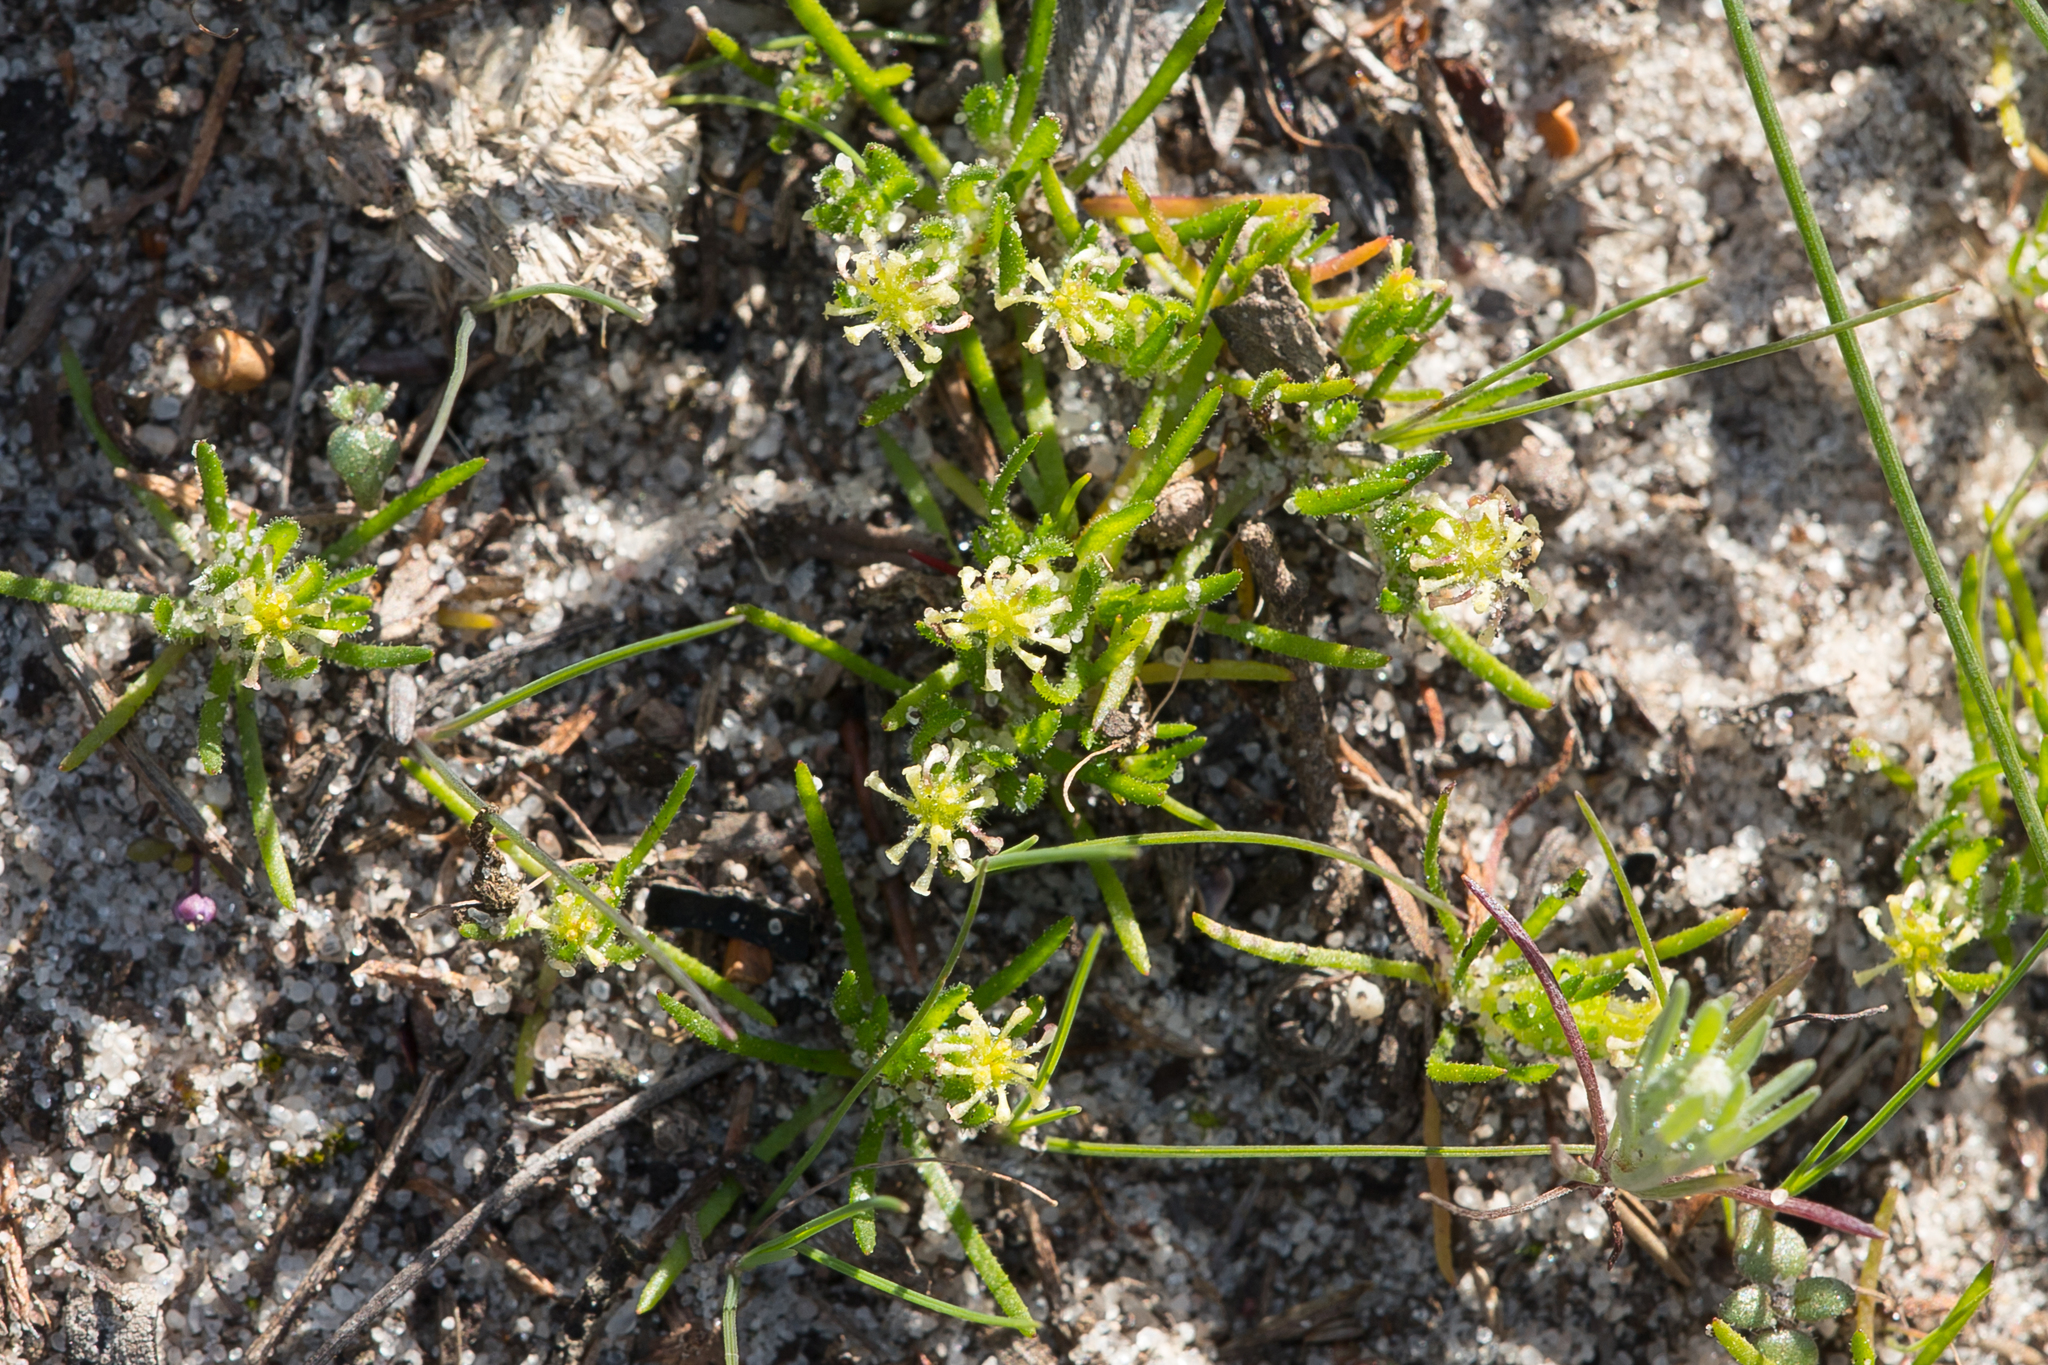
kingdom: Plantae
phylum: Tracheophyta
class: Magnoliopsida
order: Asterales
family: Asteraceae
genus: Millotia
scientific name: Millotia muelleri
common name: Common bow-flower
